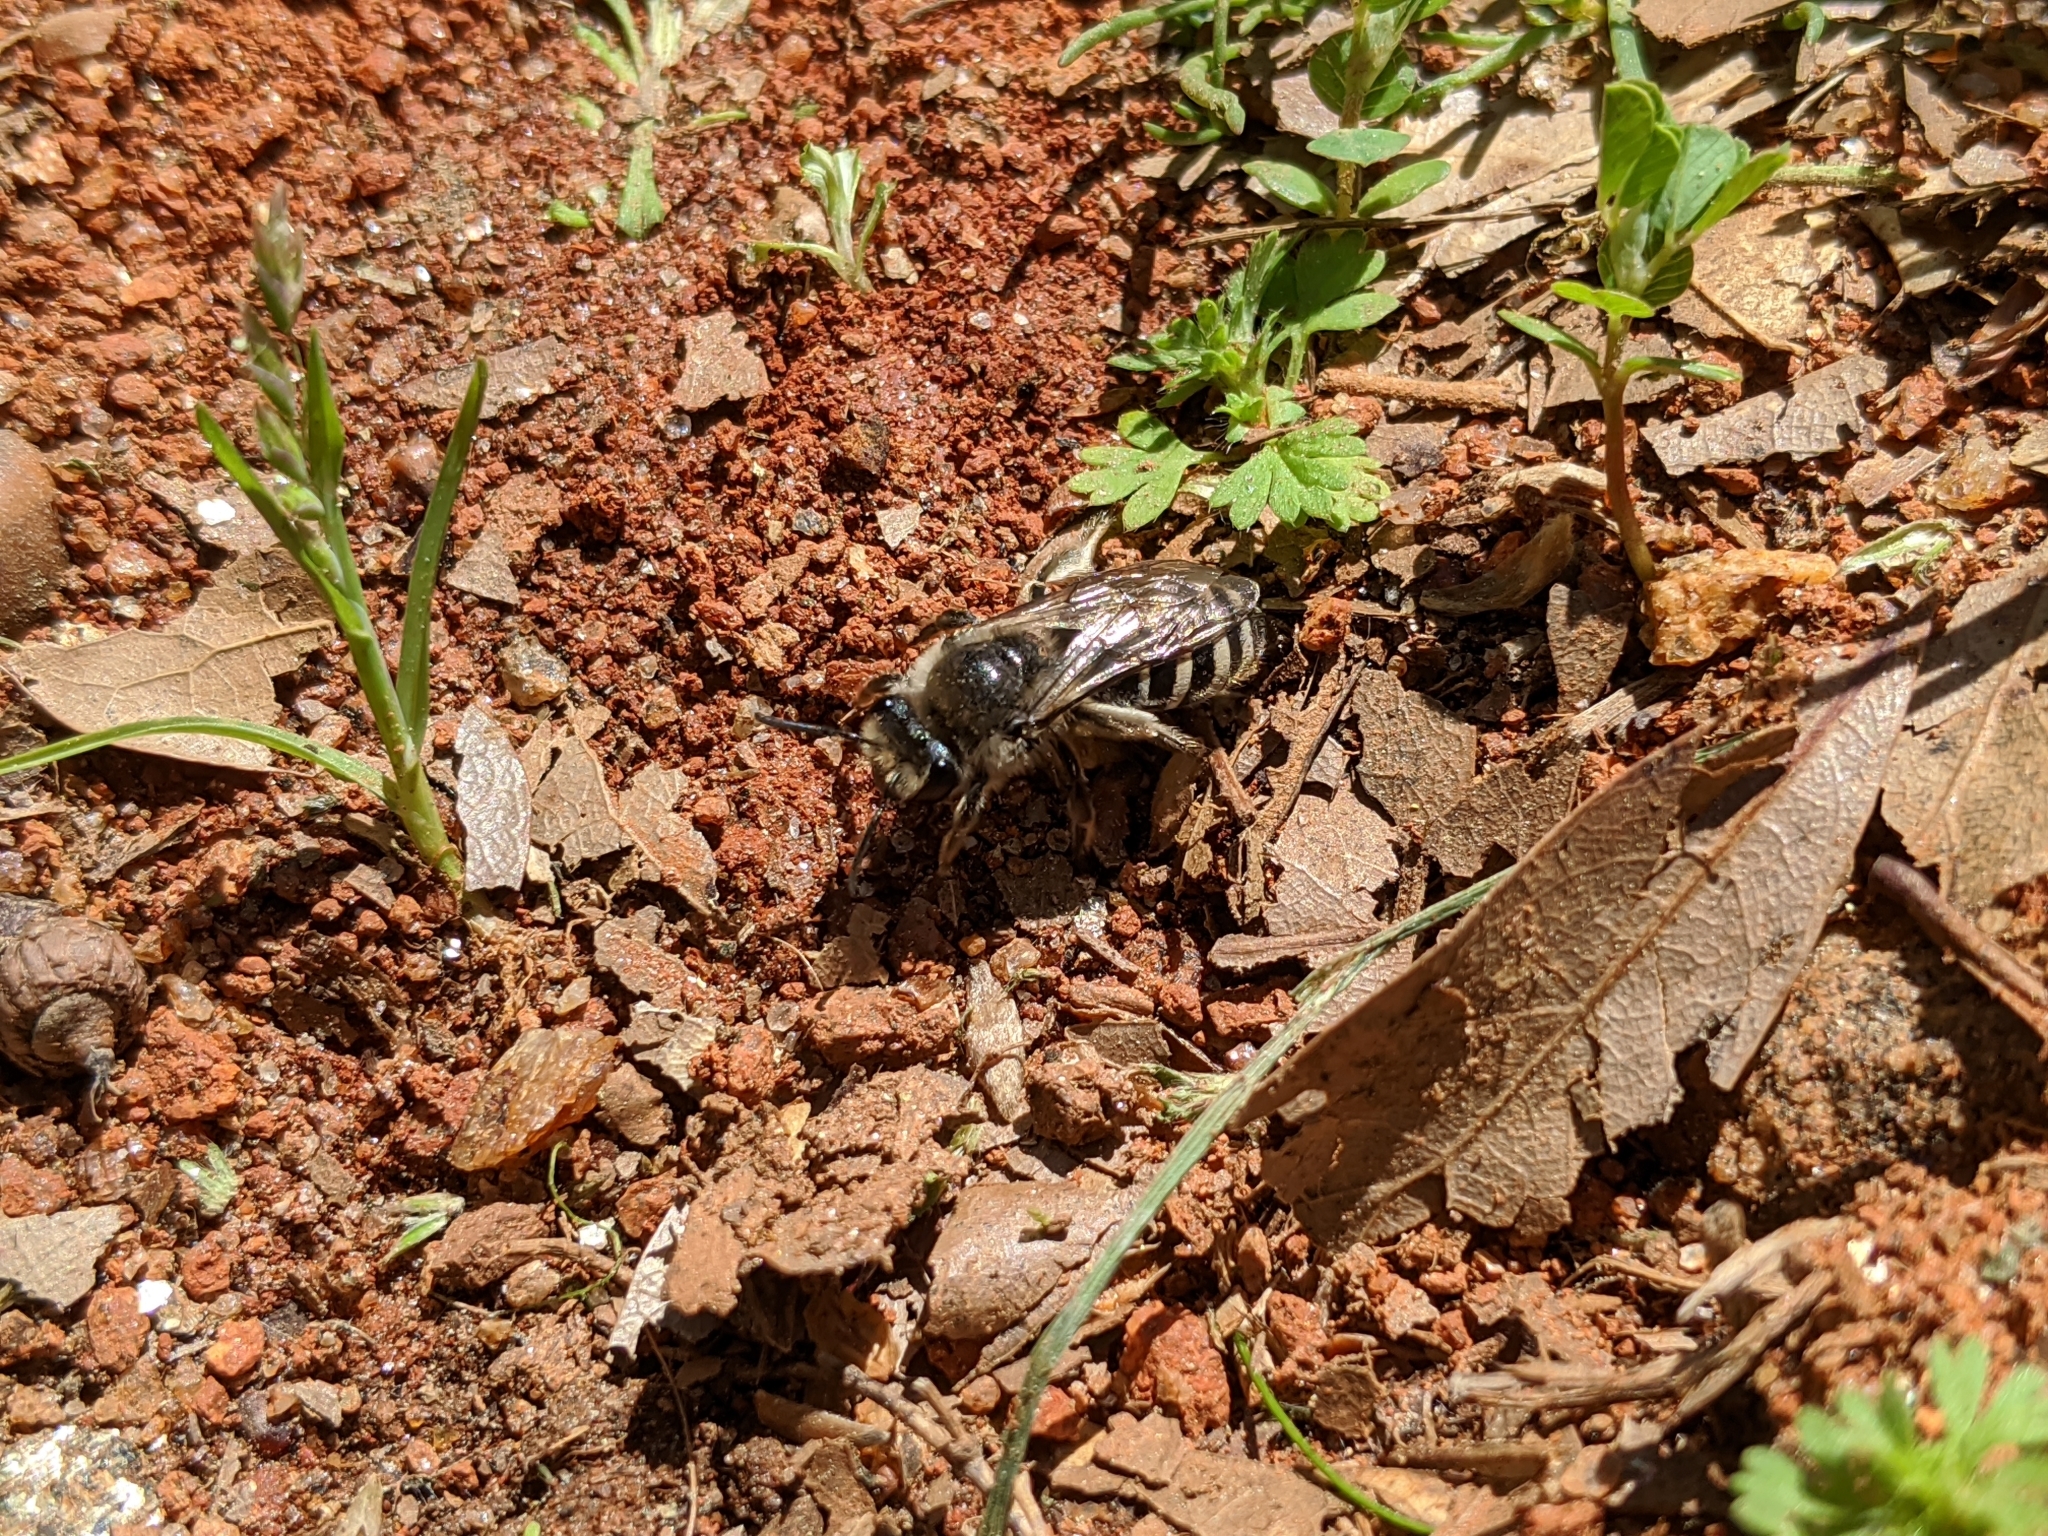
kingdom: Animalia
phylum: Arthropoda
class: Insecta
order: Hymenoptera
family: Colletidae
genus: Colletes
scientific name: Colletes inaequalis
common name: Unequal cellophane bee
